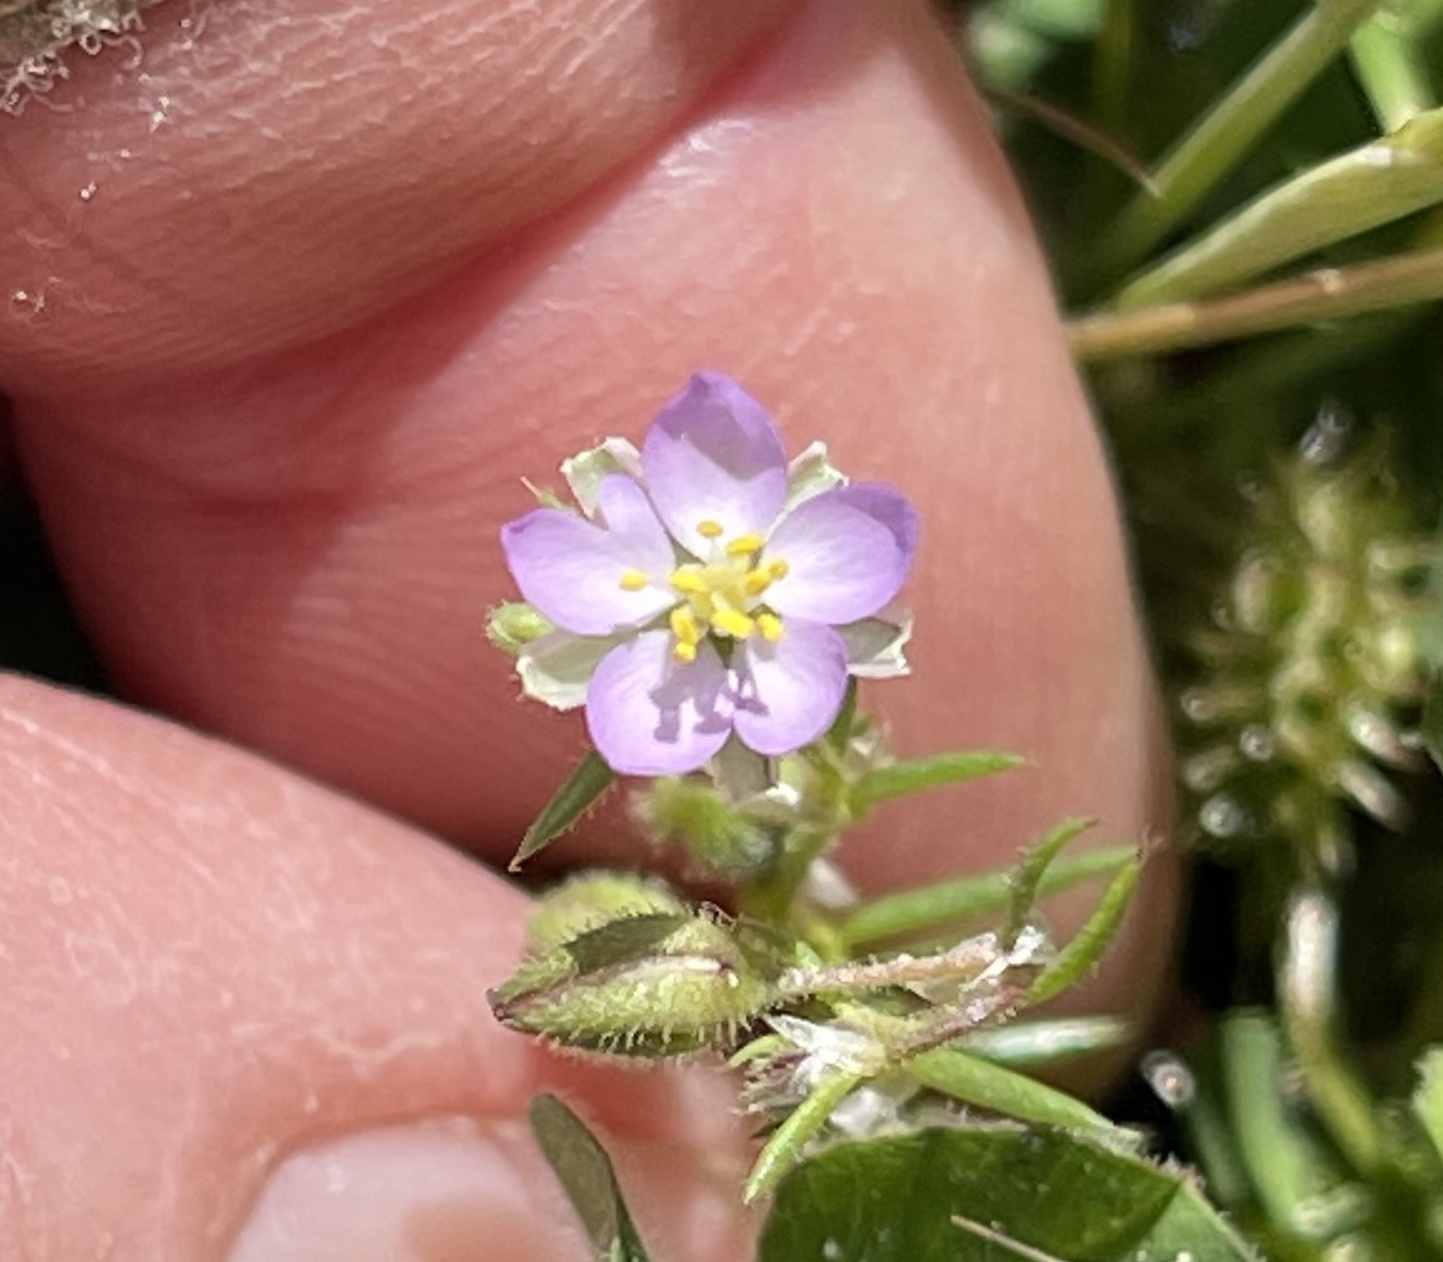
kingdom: Plantae
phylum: Tracheophyta
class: Magnoliopsida
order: Caryophyllales
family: Caryophyllaceae
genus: Spergularia
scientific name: Spergularia rubra
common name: Red sand-spurrey
